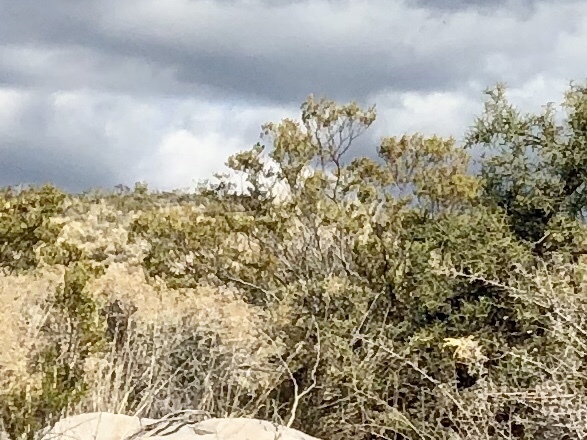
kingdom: Plantae
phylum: Tracheophyta
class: Magnoliopsida
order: Zygophyllales
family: Zygophyllaceae
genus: Larrea
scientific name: Larrea tridentata
